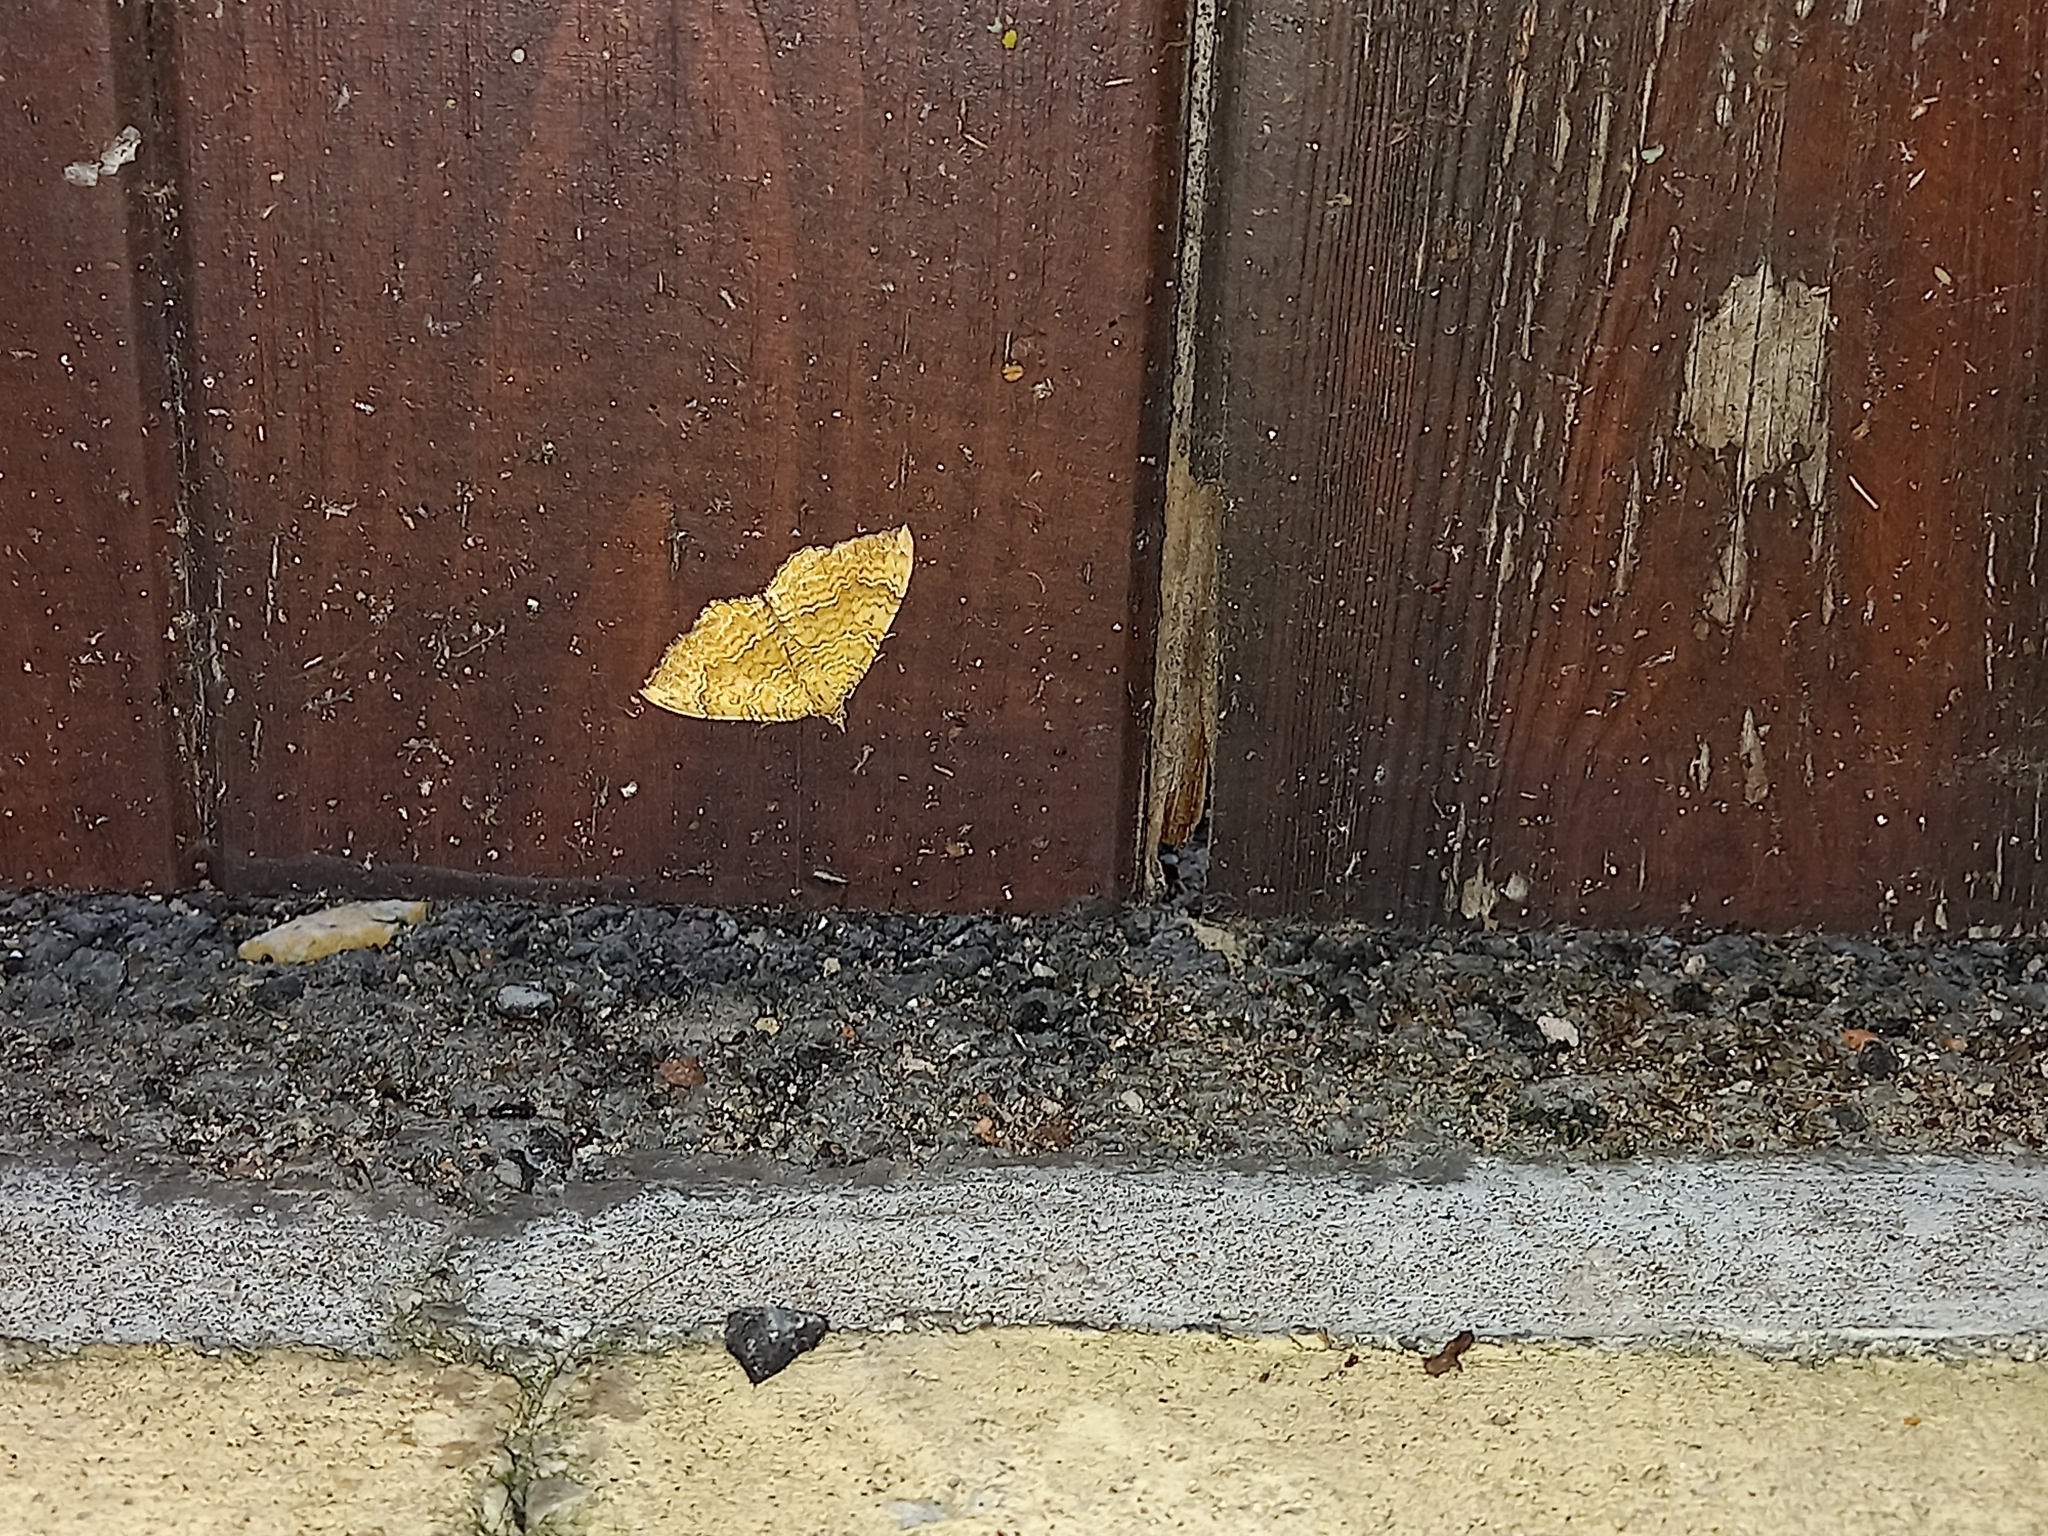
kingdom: Animalia
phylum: Arthropoda
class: Insecta
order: Lepidoptera
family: Geometridae
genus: Camptogramma
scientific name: Camptogramma bilineata
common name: Yellow shell
